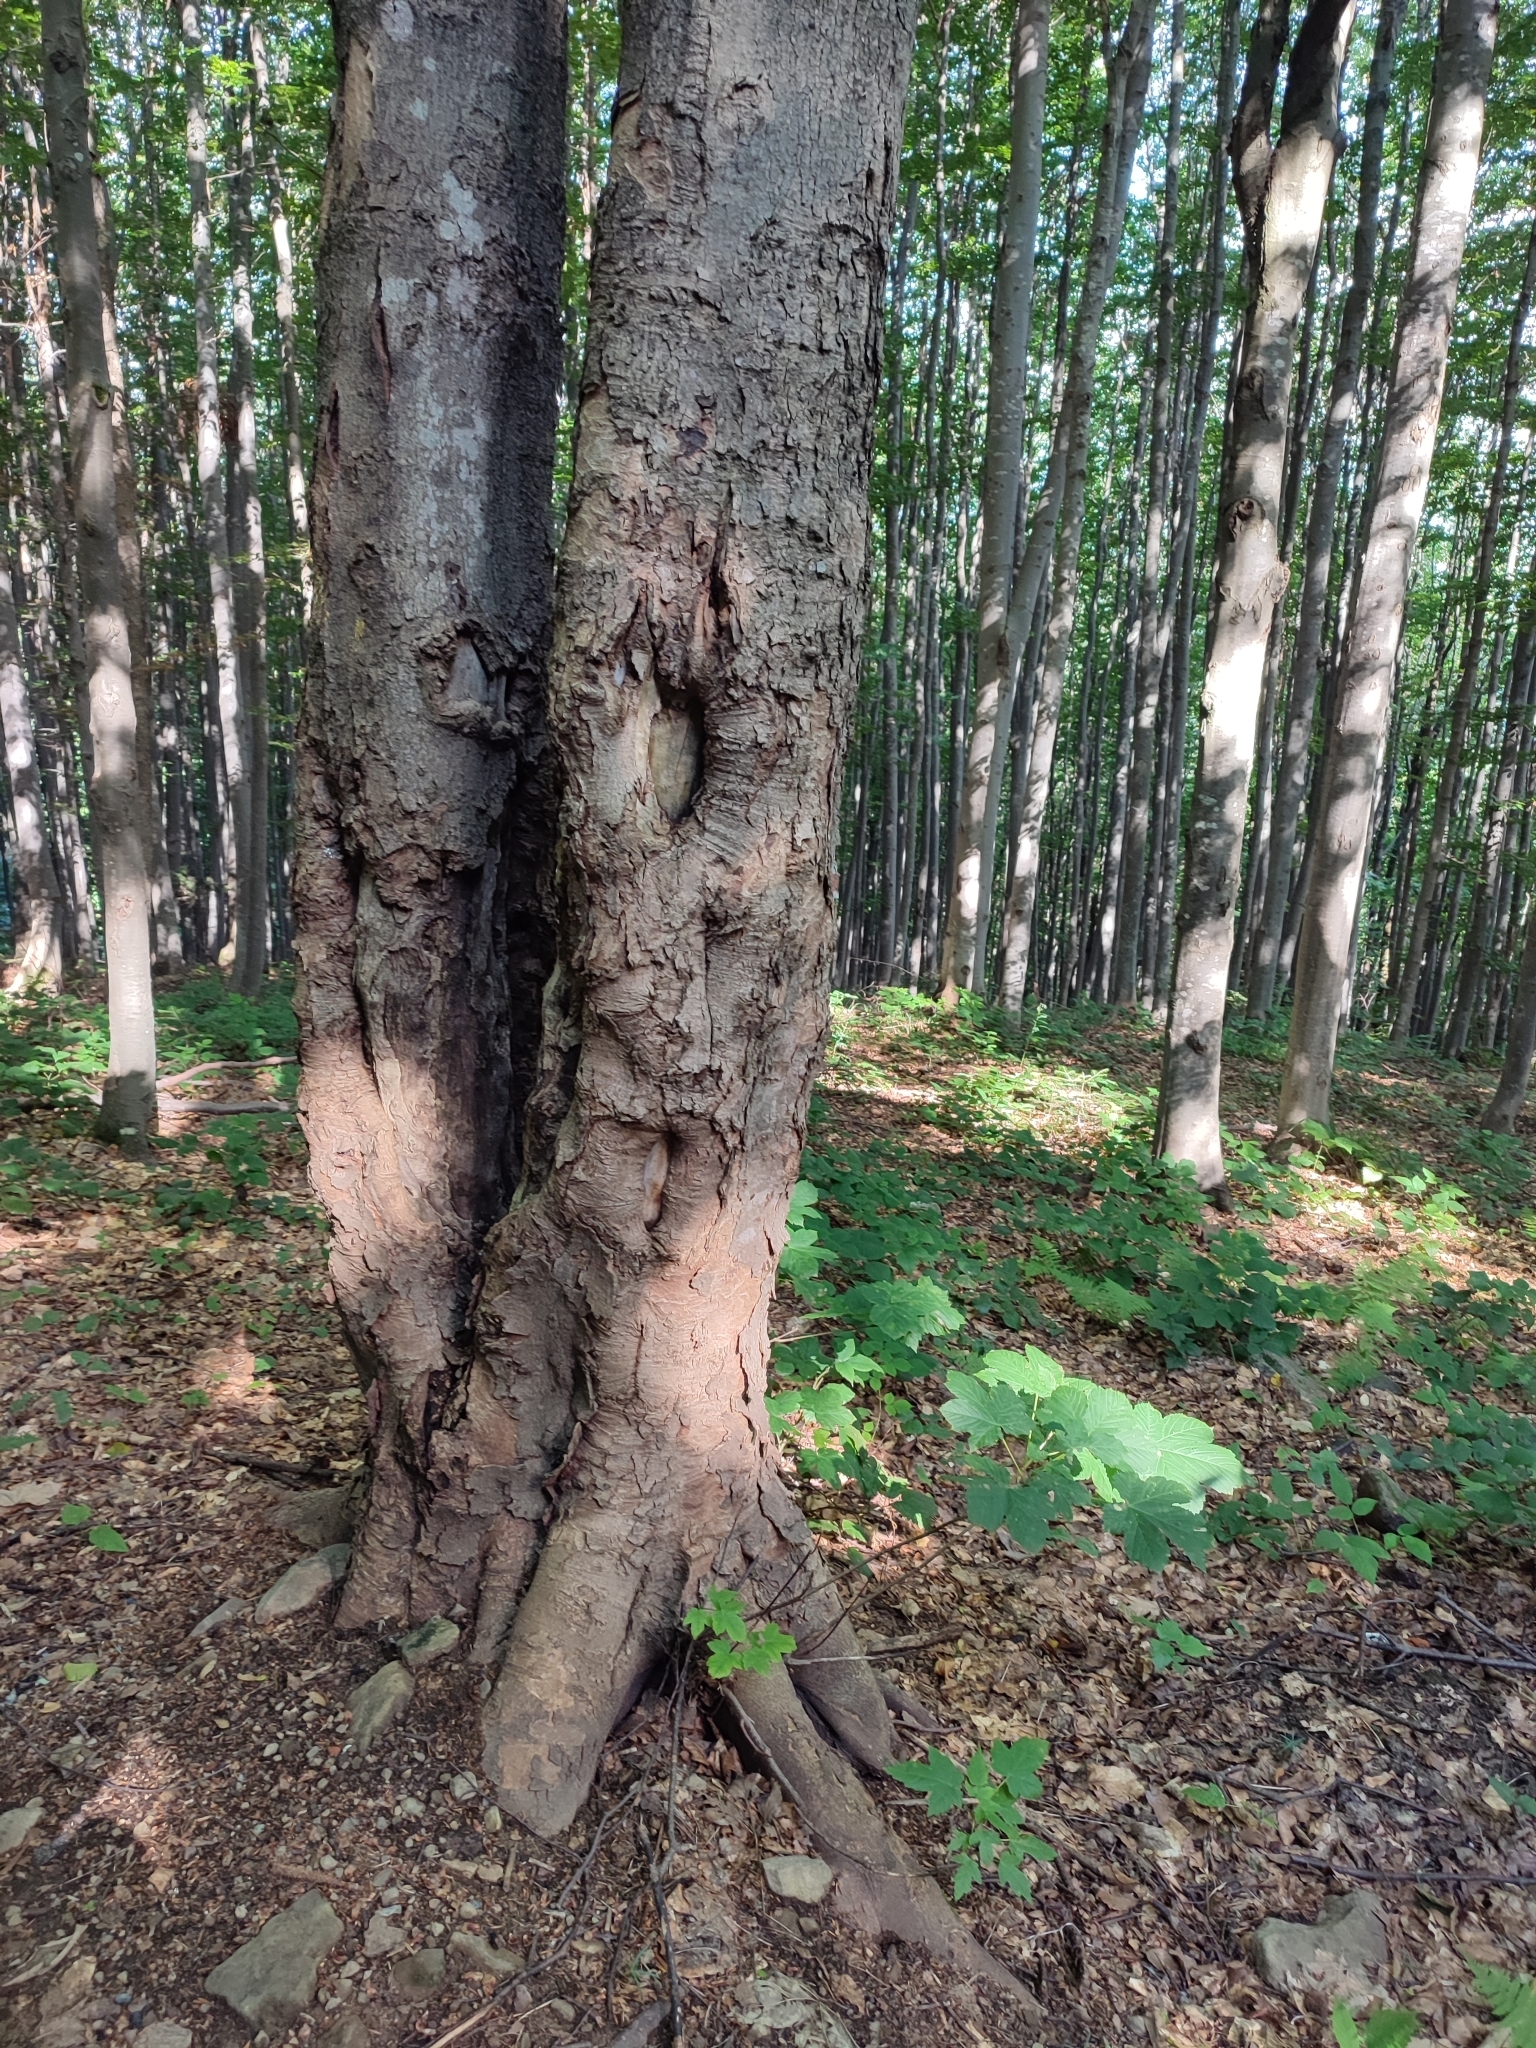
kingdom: Plantae
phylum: Tracheophyta
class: Magnoliopsida
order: Sapindales
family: Sapindaceae
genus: Acer
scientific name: Acer pseudoplatanus
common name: Sycamore
